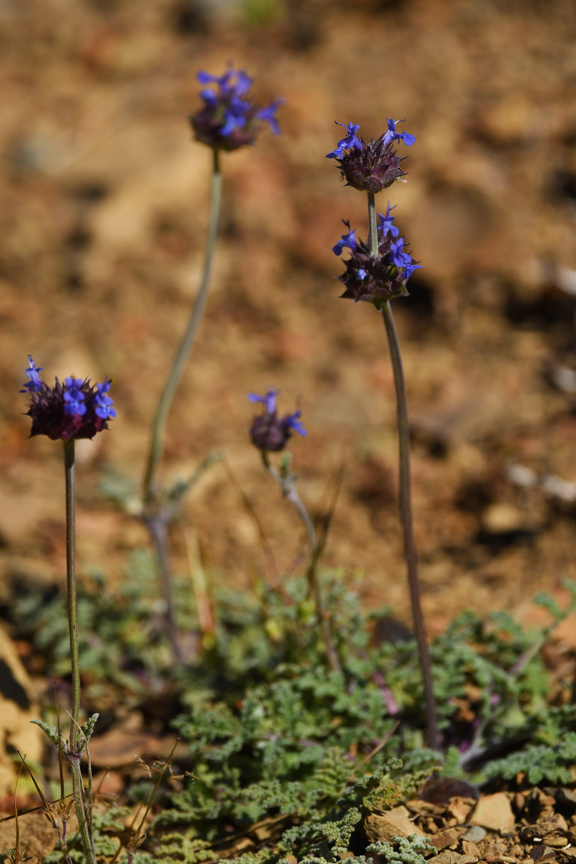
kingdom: Plantae
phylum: Tracheophyta
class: Magnoliopsida
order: Lamiales
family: Lamiaceae
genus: Salvia
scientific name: Salvia columbariae
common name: Chia
